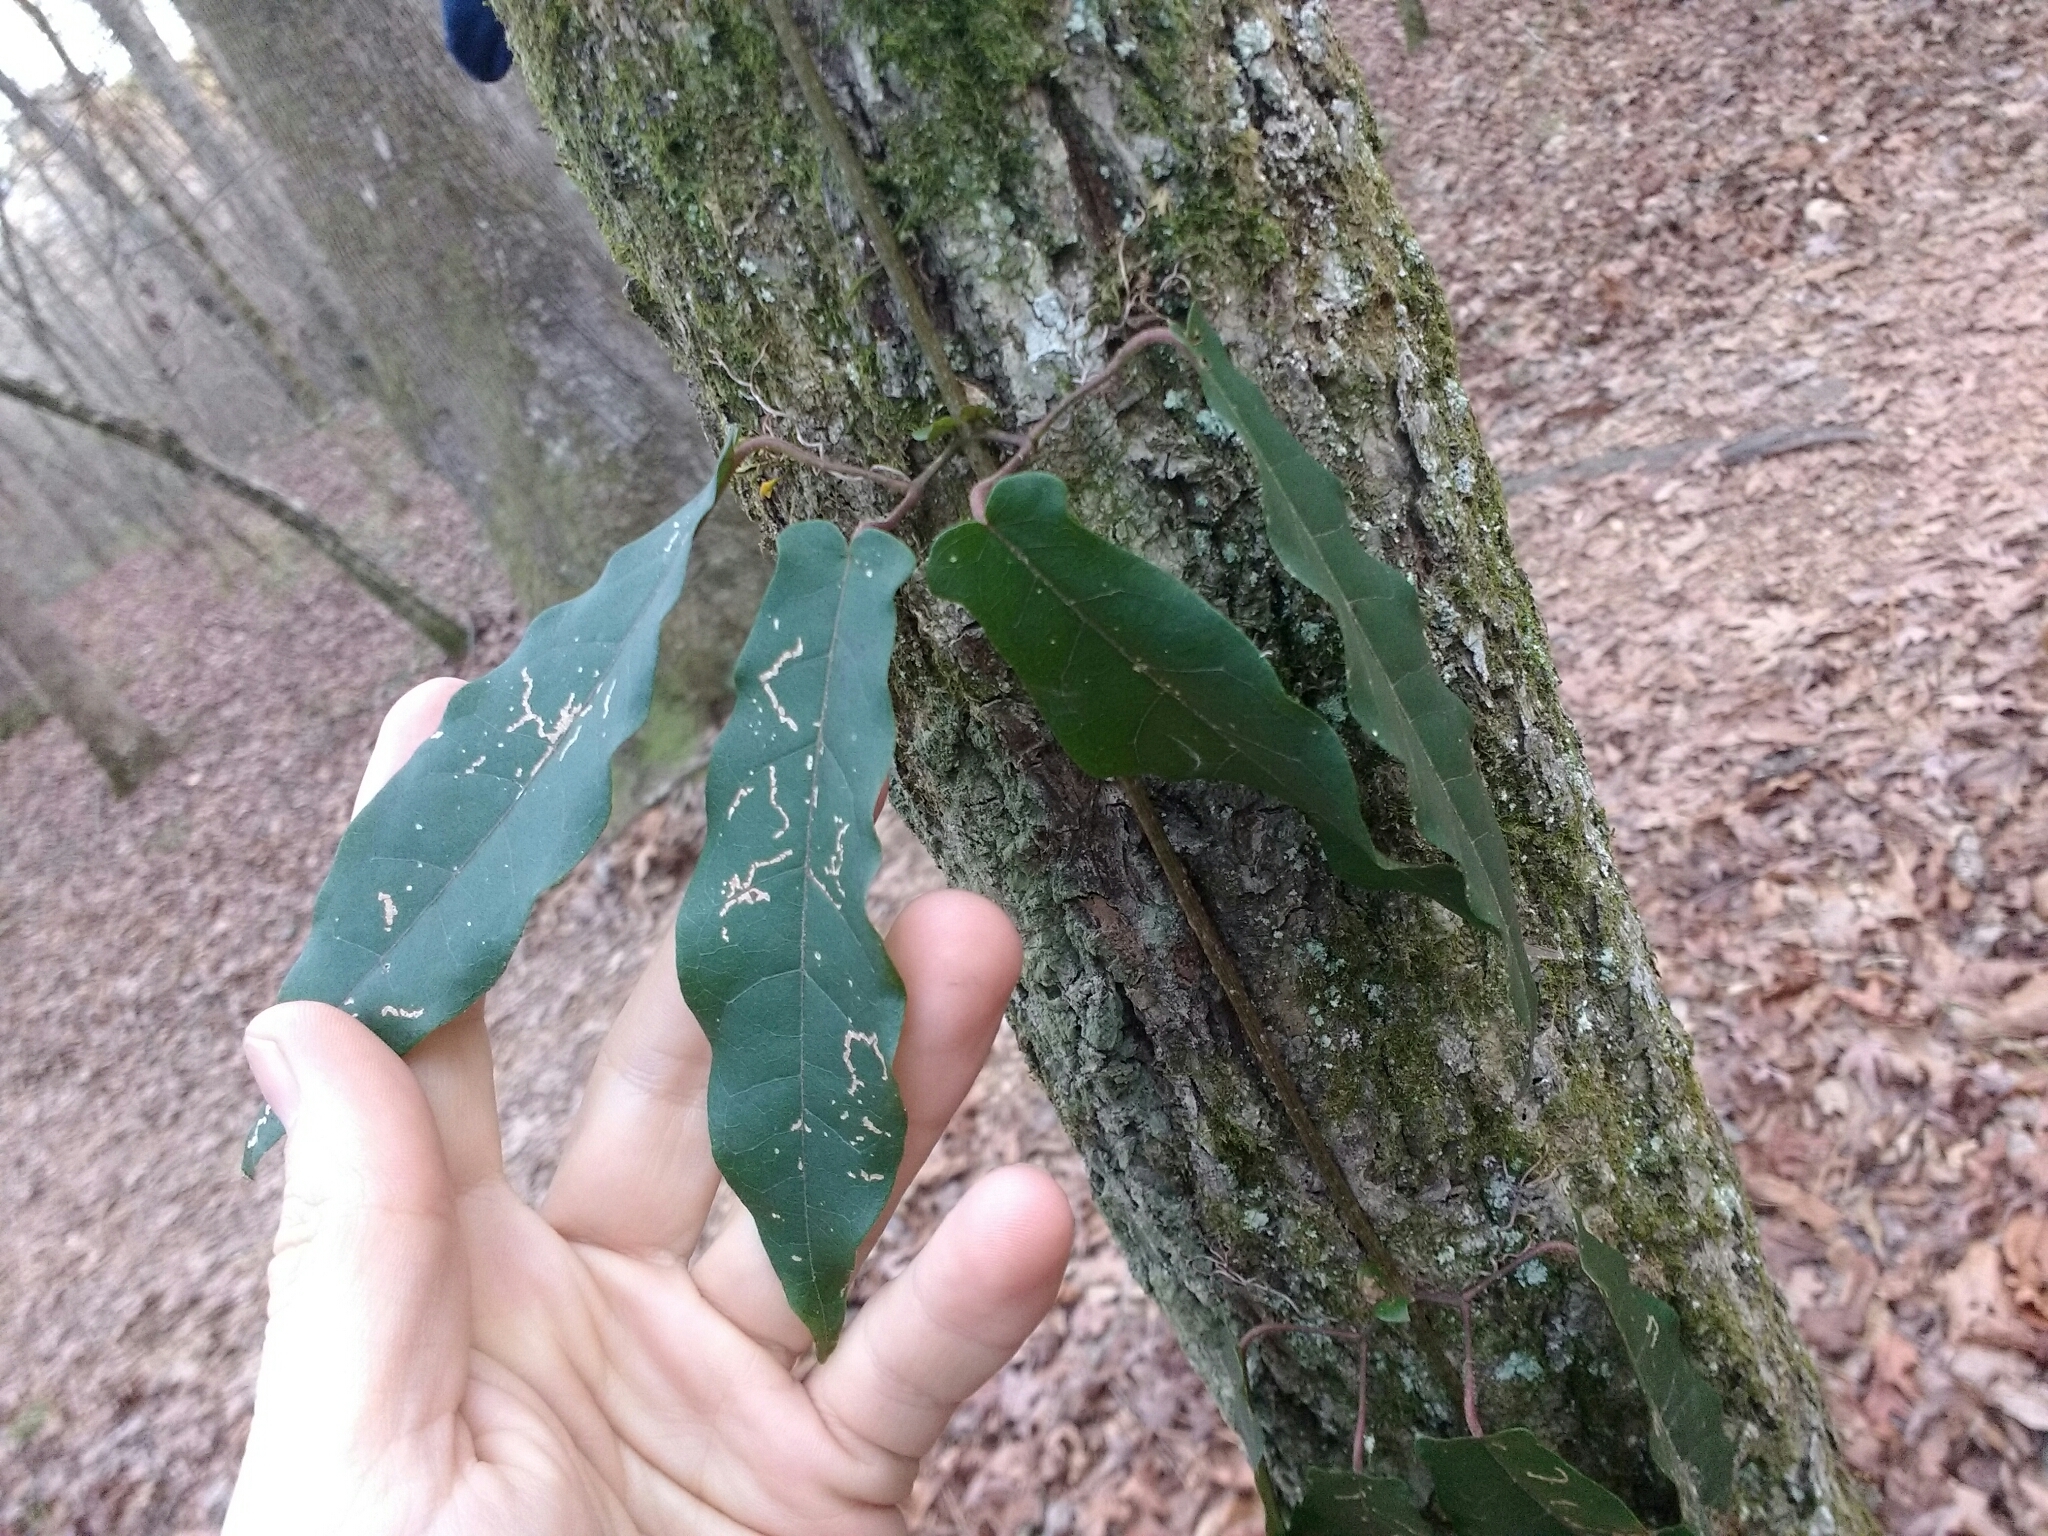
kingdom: Plantae
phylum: Tracheophyta
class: Magnoliopsida
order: Lamiales
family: Bignoniaceae
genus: Bignonia
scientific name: Bignonia capreolata
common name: Crossvine
